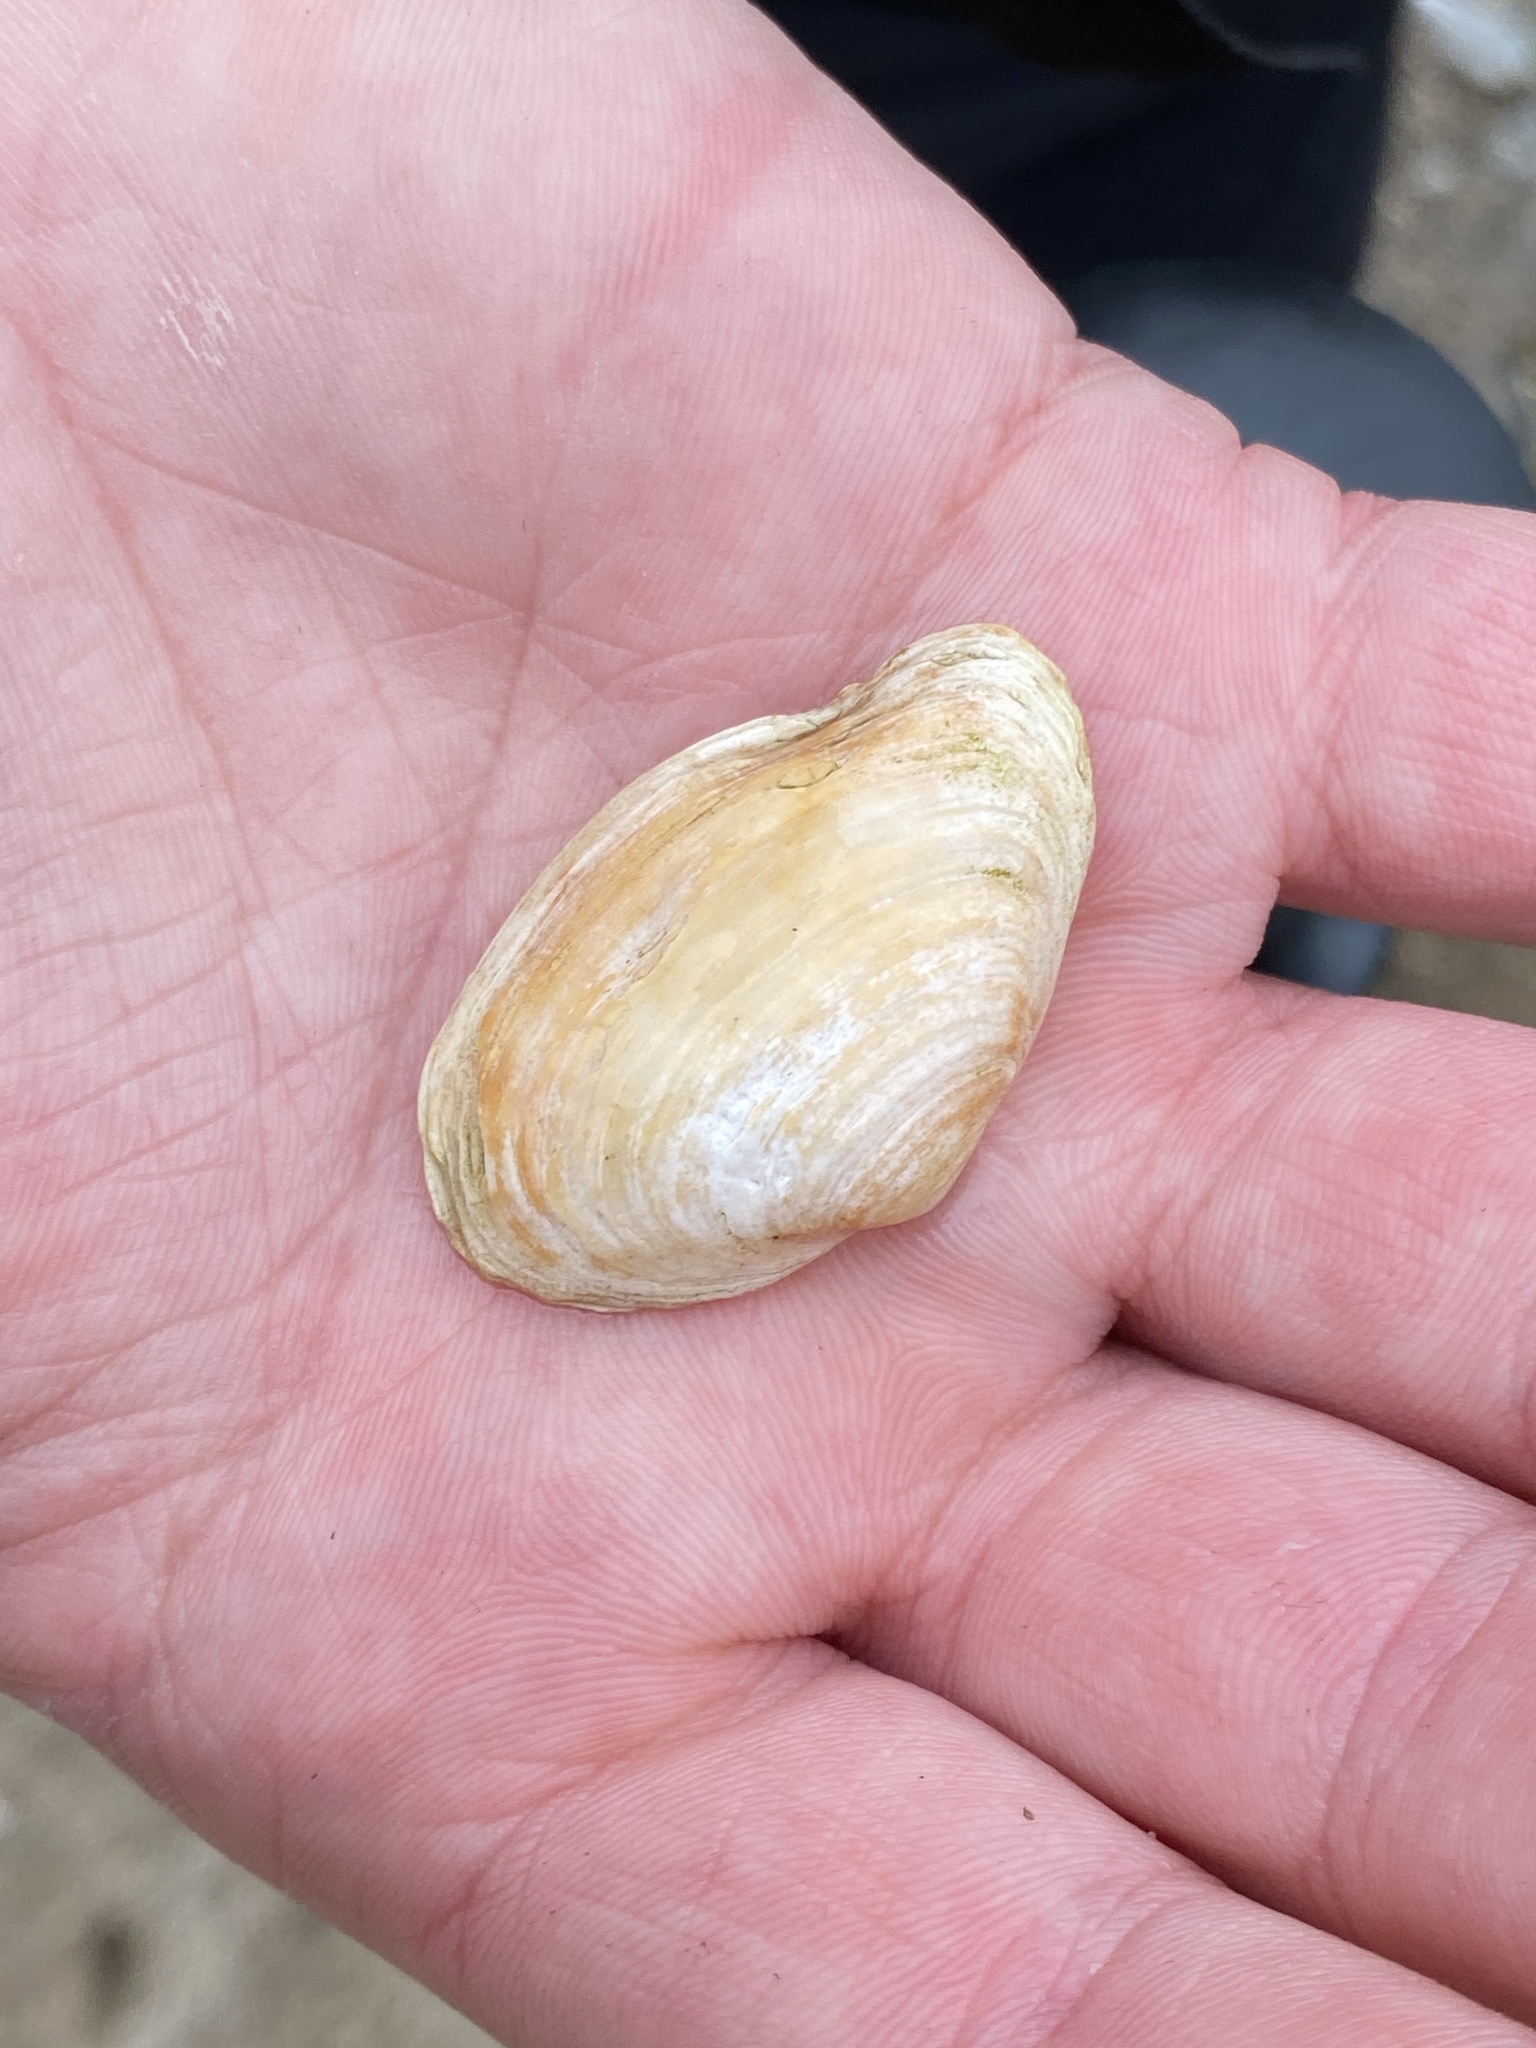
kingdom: Animalia
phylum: Mollusca
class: Bivalvia
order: Myida
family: Myidae
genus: Mya
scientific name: Mya arenaria
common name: Soft-shelled clam
